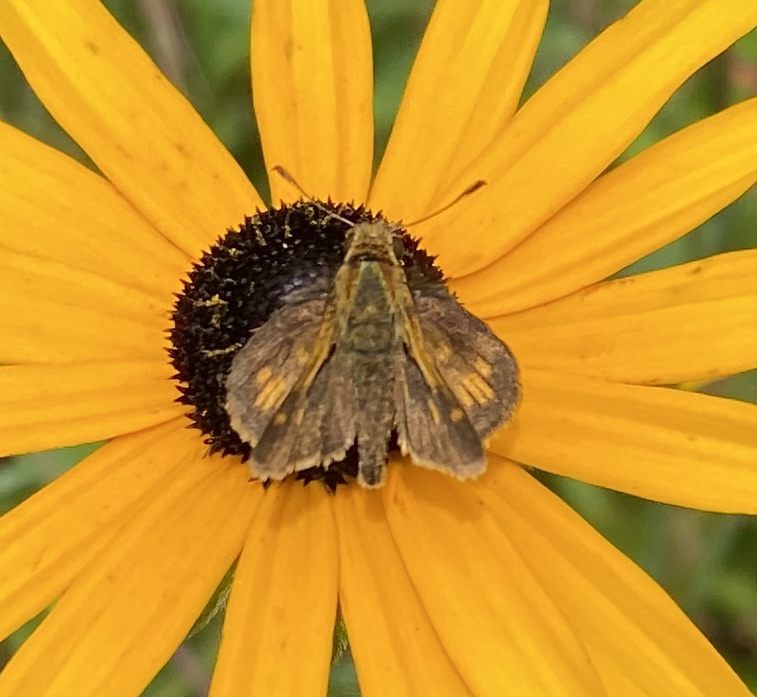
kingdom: Animalia
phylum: Arthropoda
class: Insecta
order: Lepidoptera
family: Hesperiidae
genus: Polites
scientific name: Polites coras
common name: Peck's skipper
